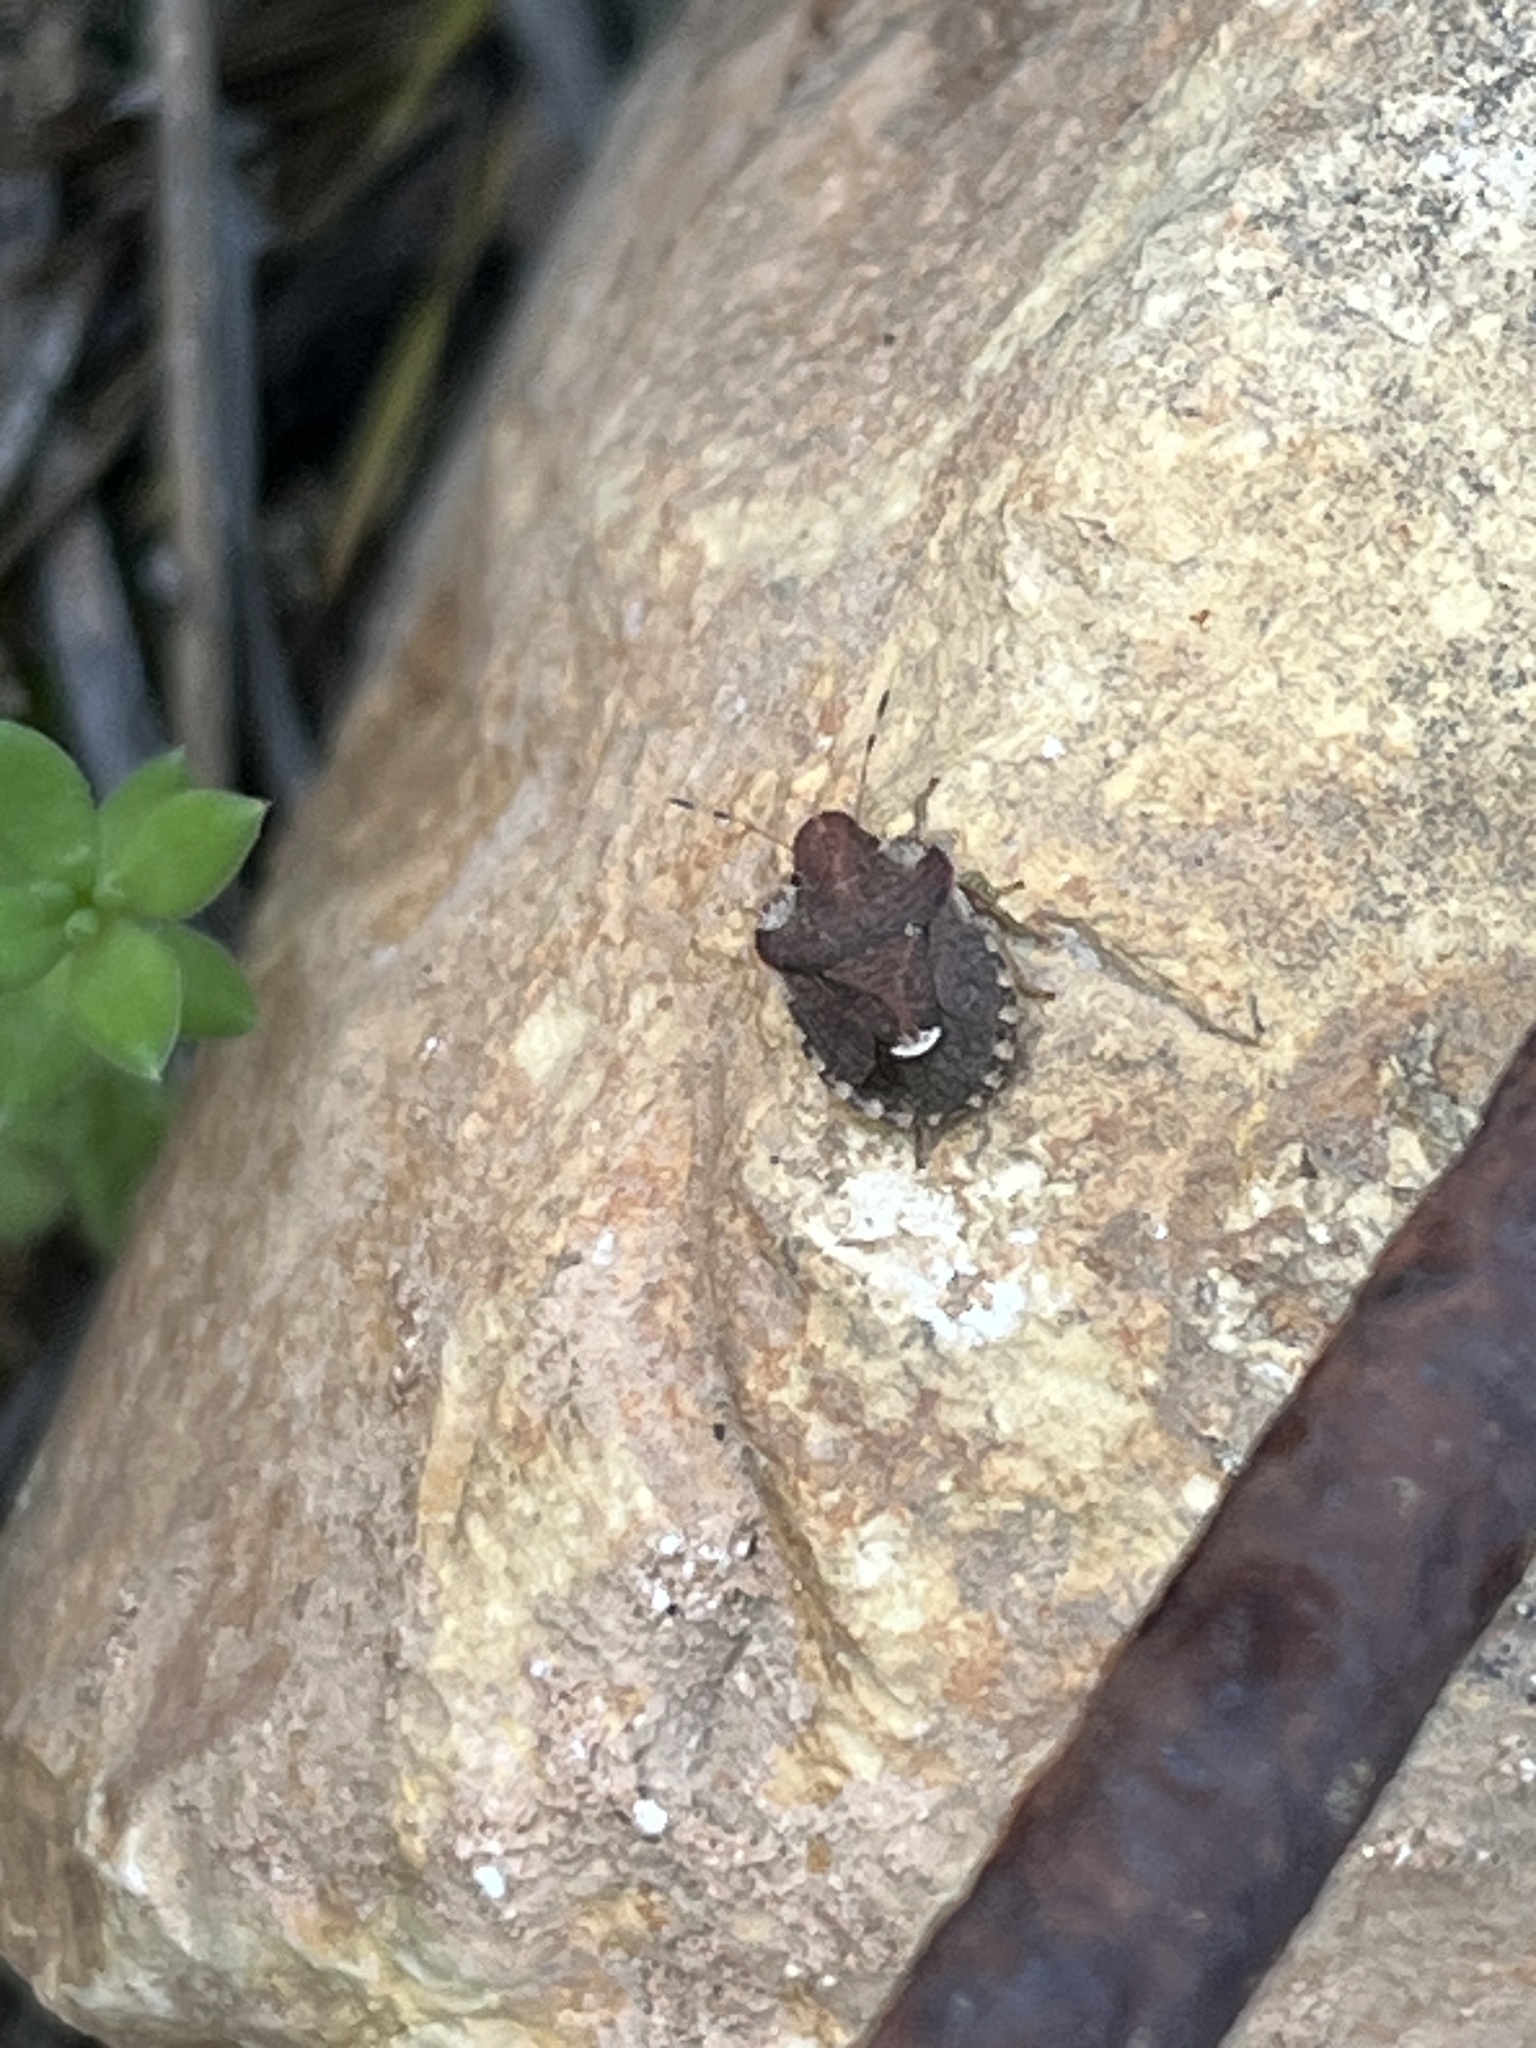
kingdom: Animalia
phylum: Arthropoda
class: Insecta
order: Hemiptera
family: Pentatomidae
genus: Dyroderes
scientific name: Dyroderes umbraculatus
